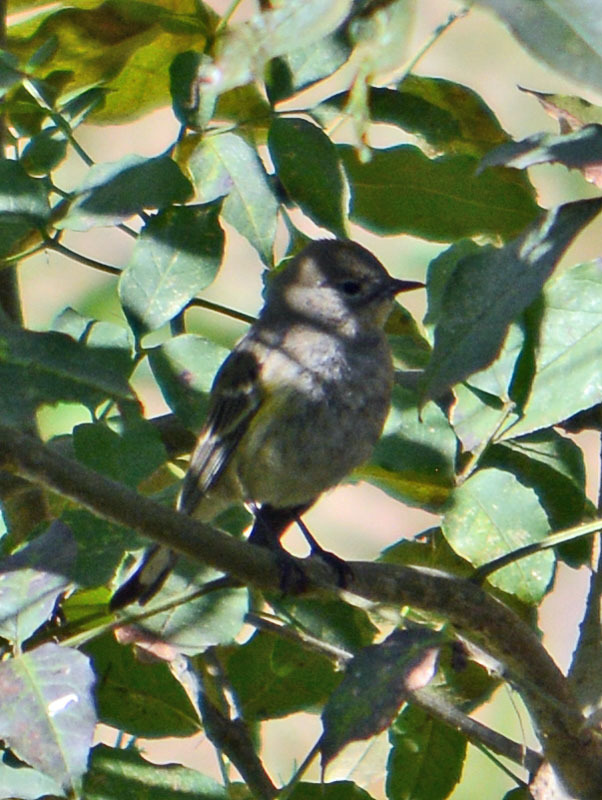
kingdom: Animalia
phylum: Chordata
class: Aves
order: Passeriformes
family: Parulidae
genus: Setophaga
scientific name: Setophaga coronata
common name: Myrtle warbler
